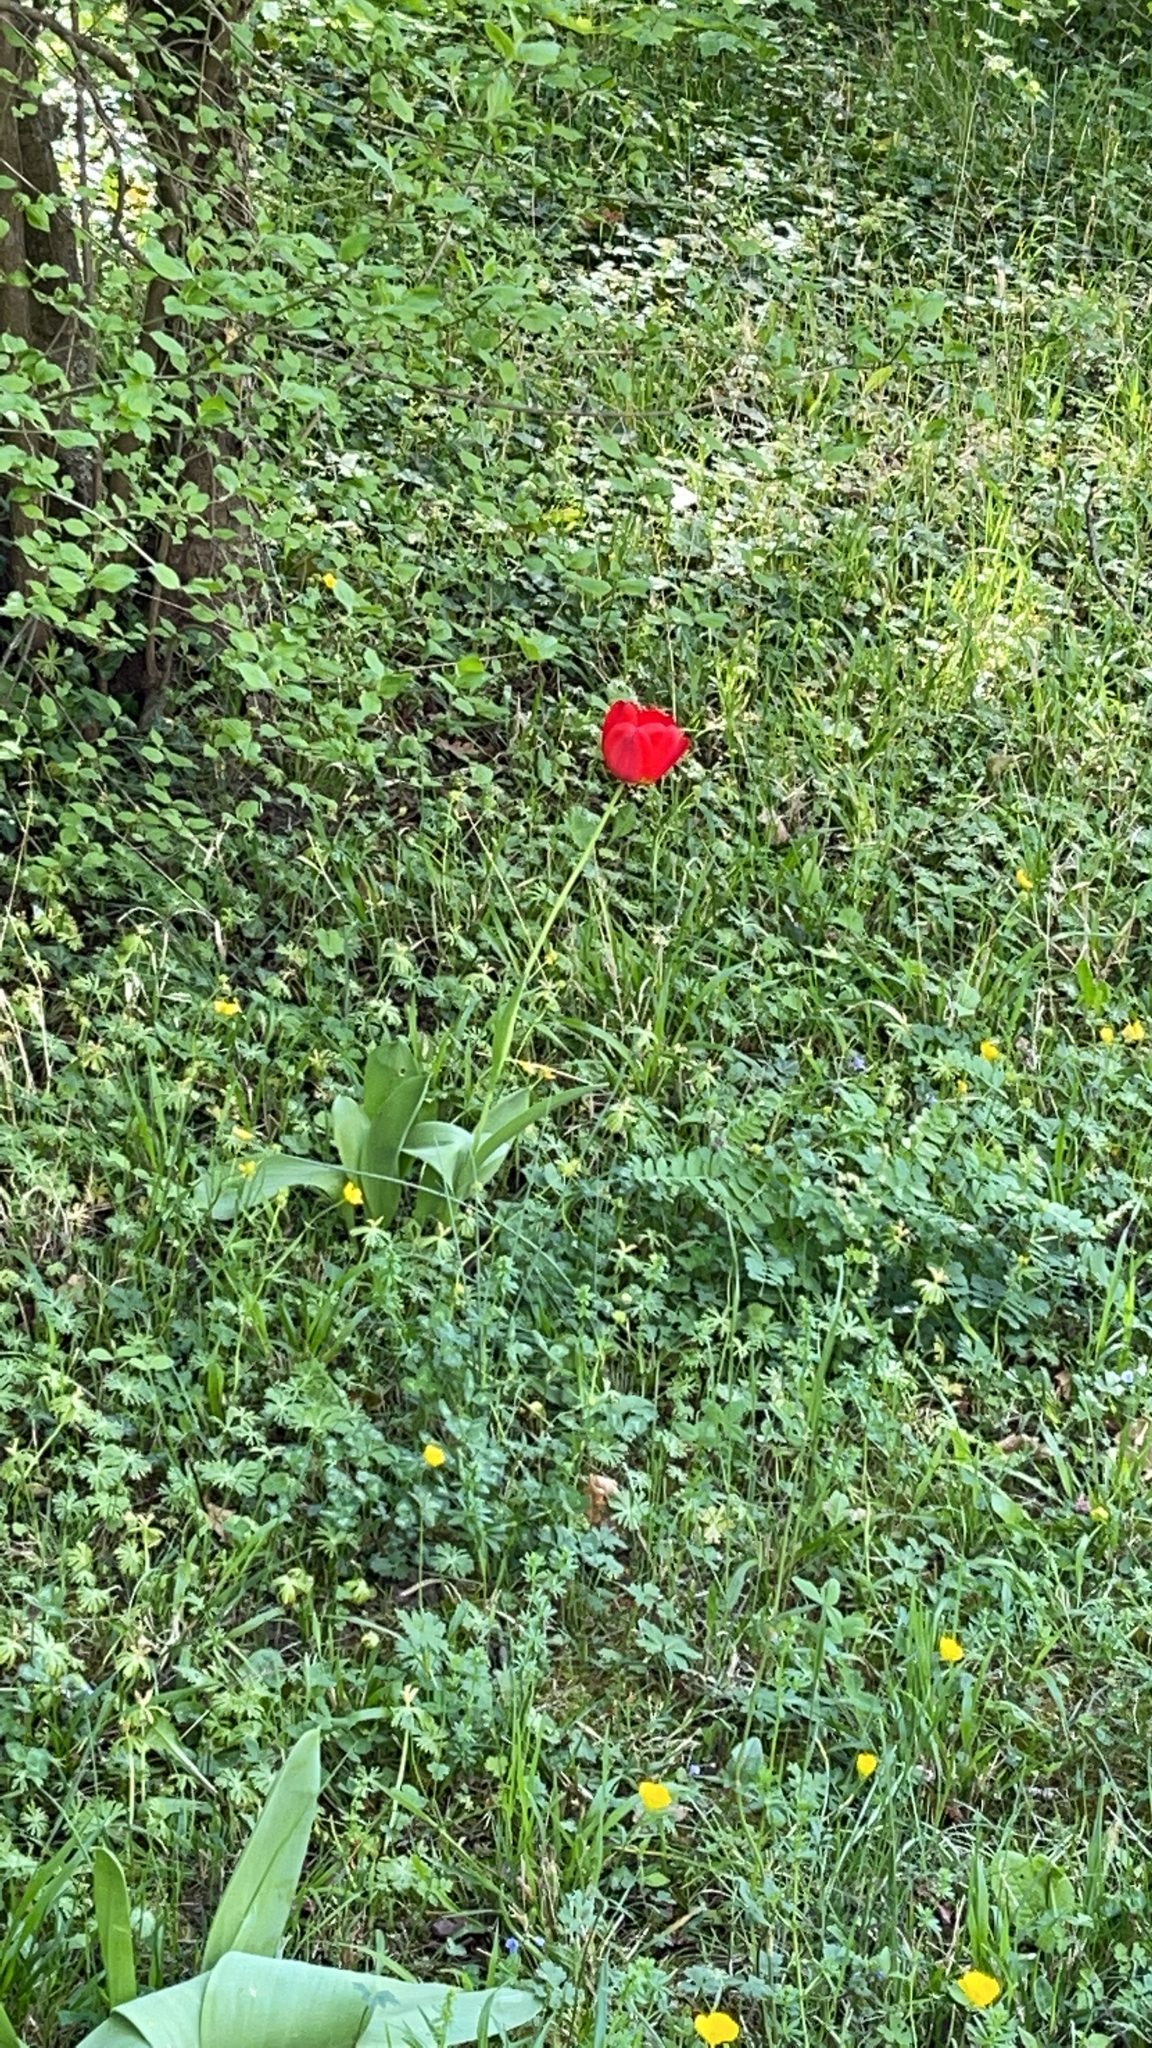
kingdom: Plantae
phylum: Tracheophyta
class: Liliopsida
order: Liliales
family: Liliaceae
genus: Tulipa
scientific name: Tulipa gesneriana
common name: Garden tulip
